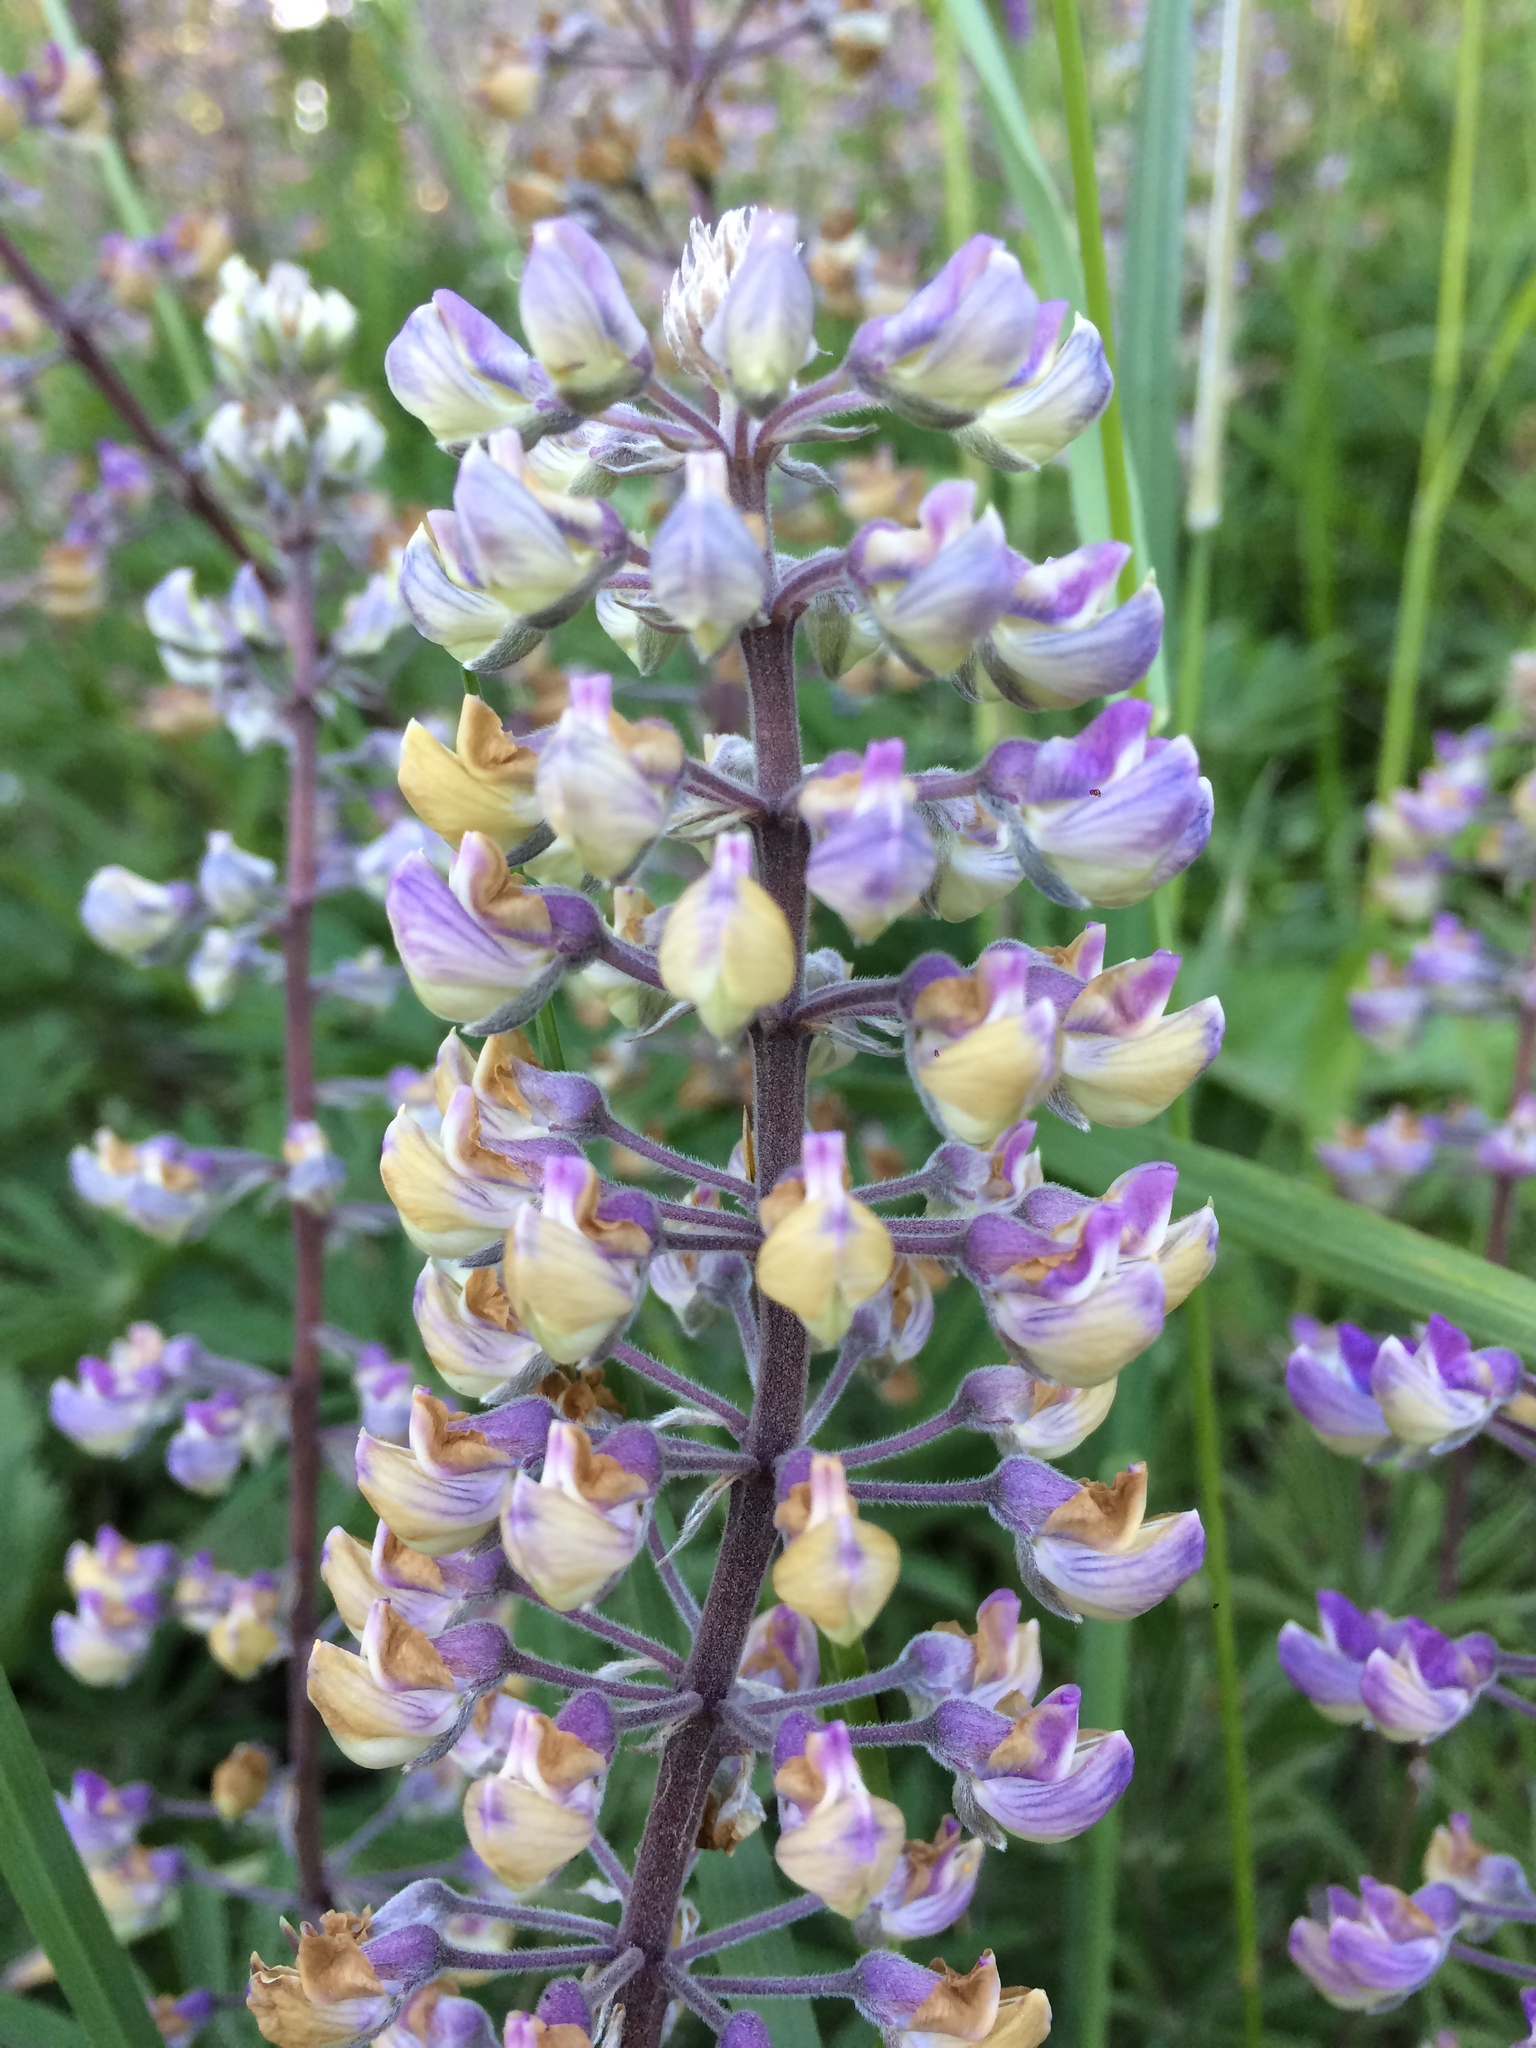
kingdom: Plantae
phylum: Tracheophyta
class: Magnoliopsida
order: Fabales
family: Fabaceae
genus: Lupinus
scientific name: Lupinus oreganus
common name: Kincaid's lupine
